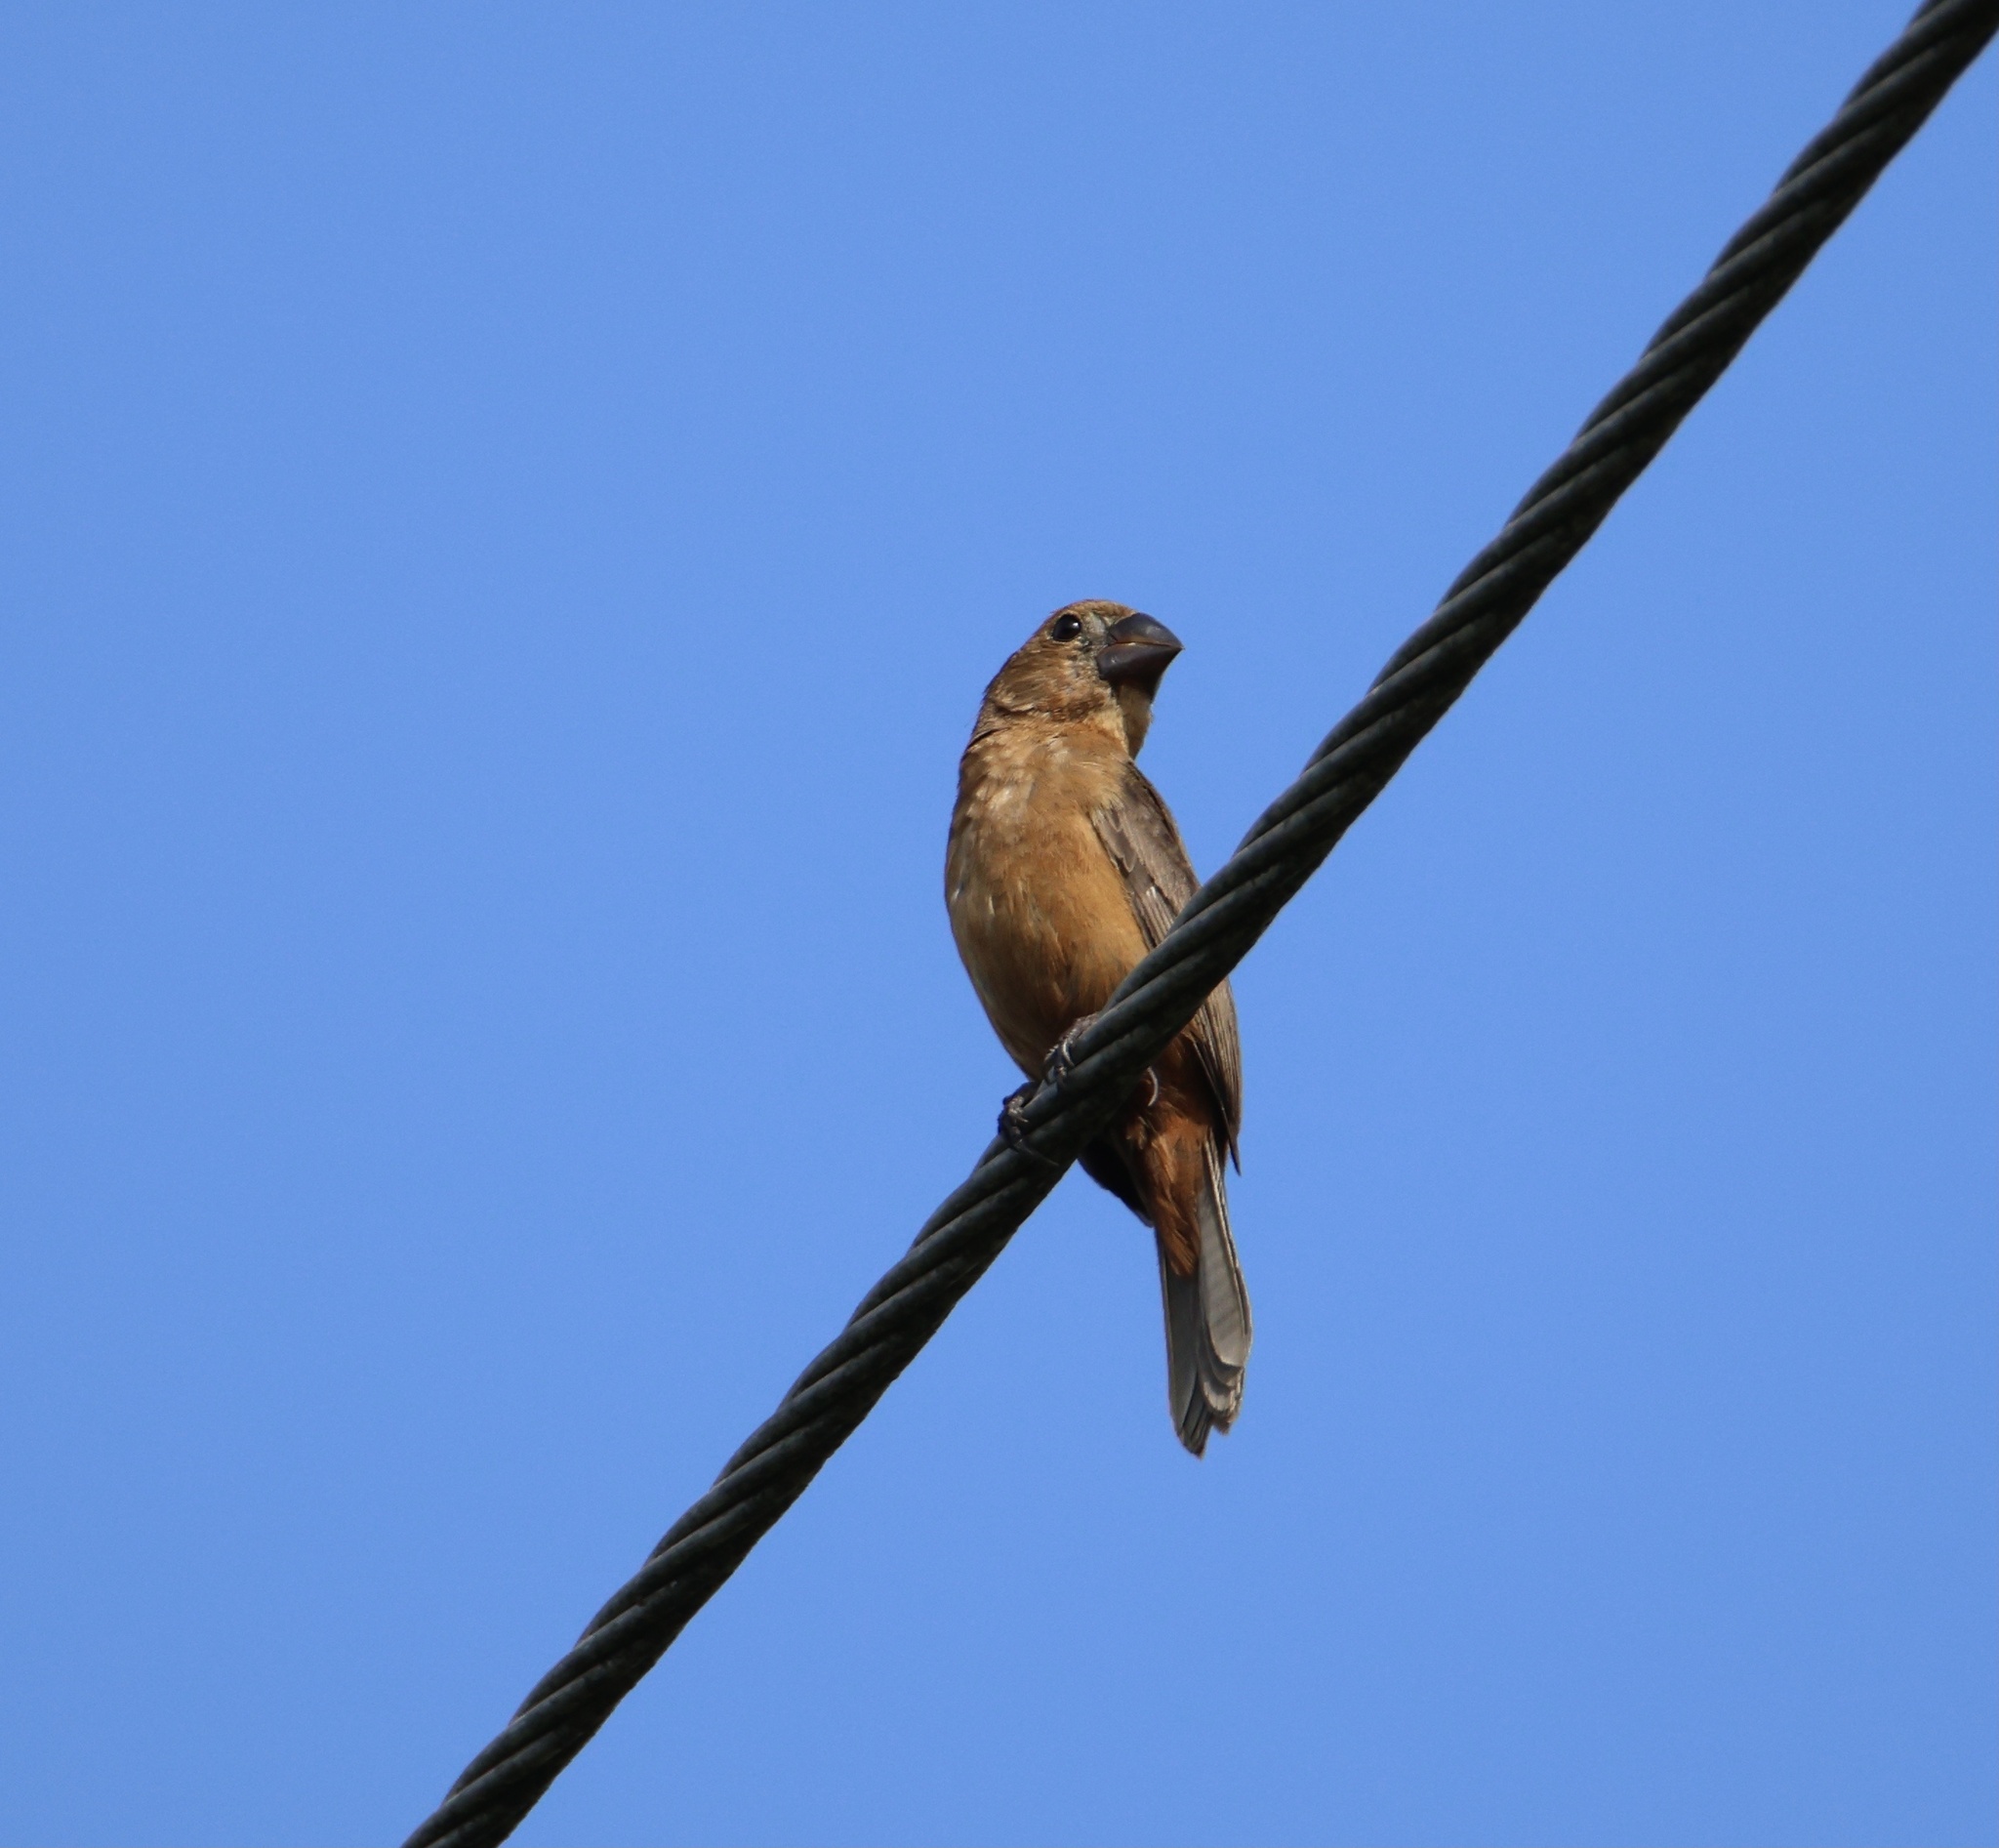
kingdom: Animalia
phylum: Chordata
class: Aves
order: Passeriformes
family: Thraupidae
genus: Sporophila
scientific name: Sporophila funerea
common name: Thick-billed seed-finch
